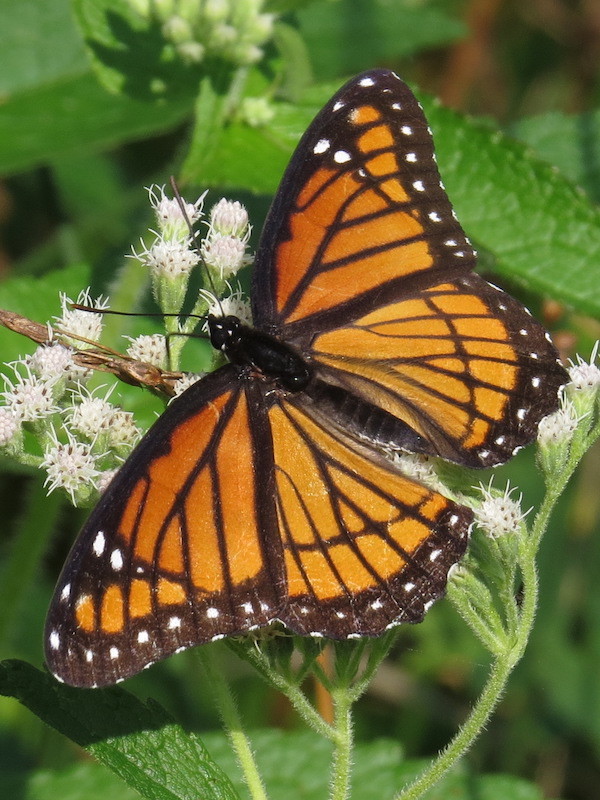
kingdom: Animalia
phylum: Arthropoda
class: Insecta
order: Lepidoptera
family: Nymphalidae
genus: Limenitis
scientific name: Limenitis archippus
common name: Viceroy
